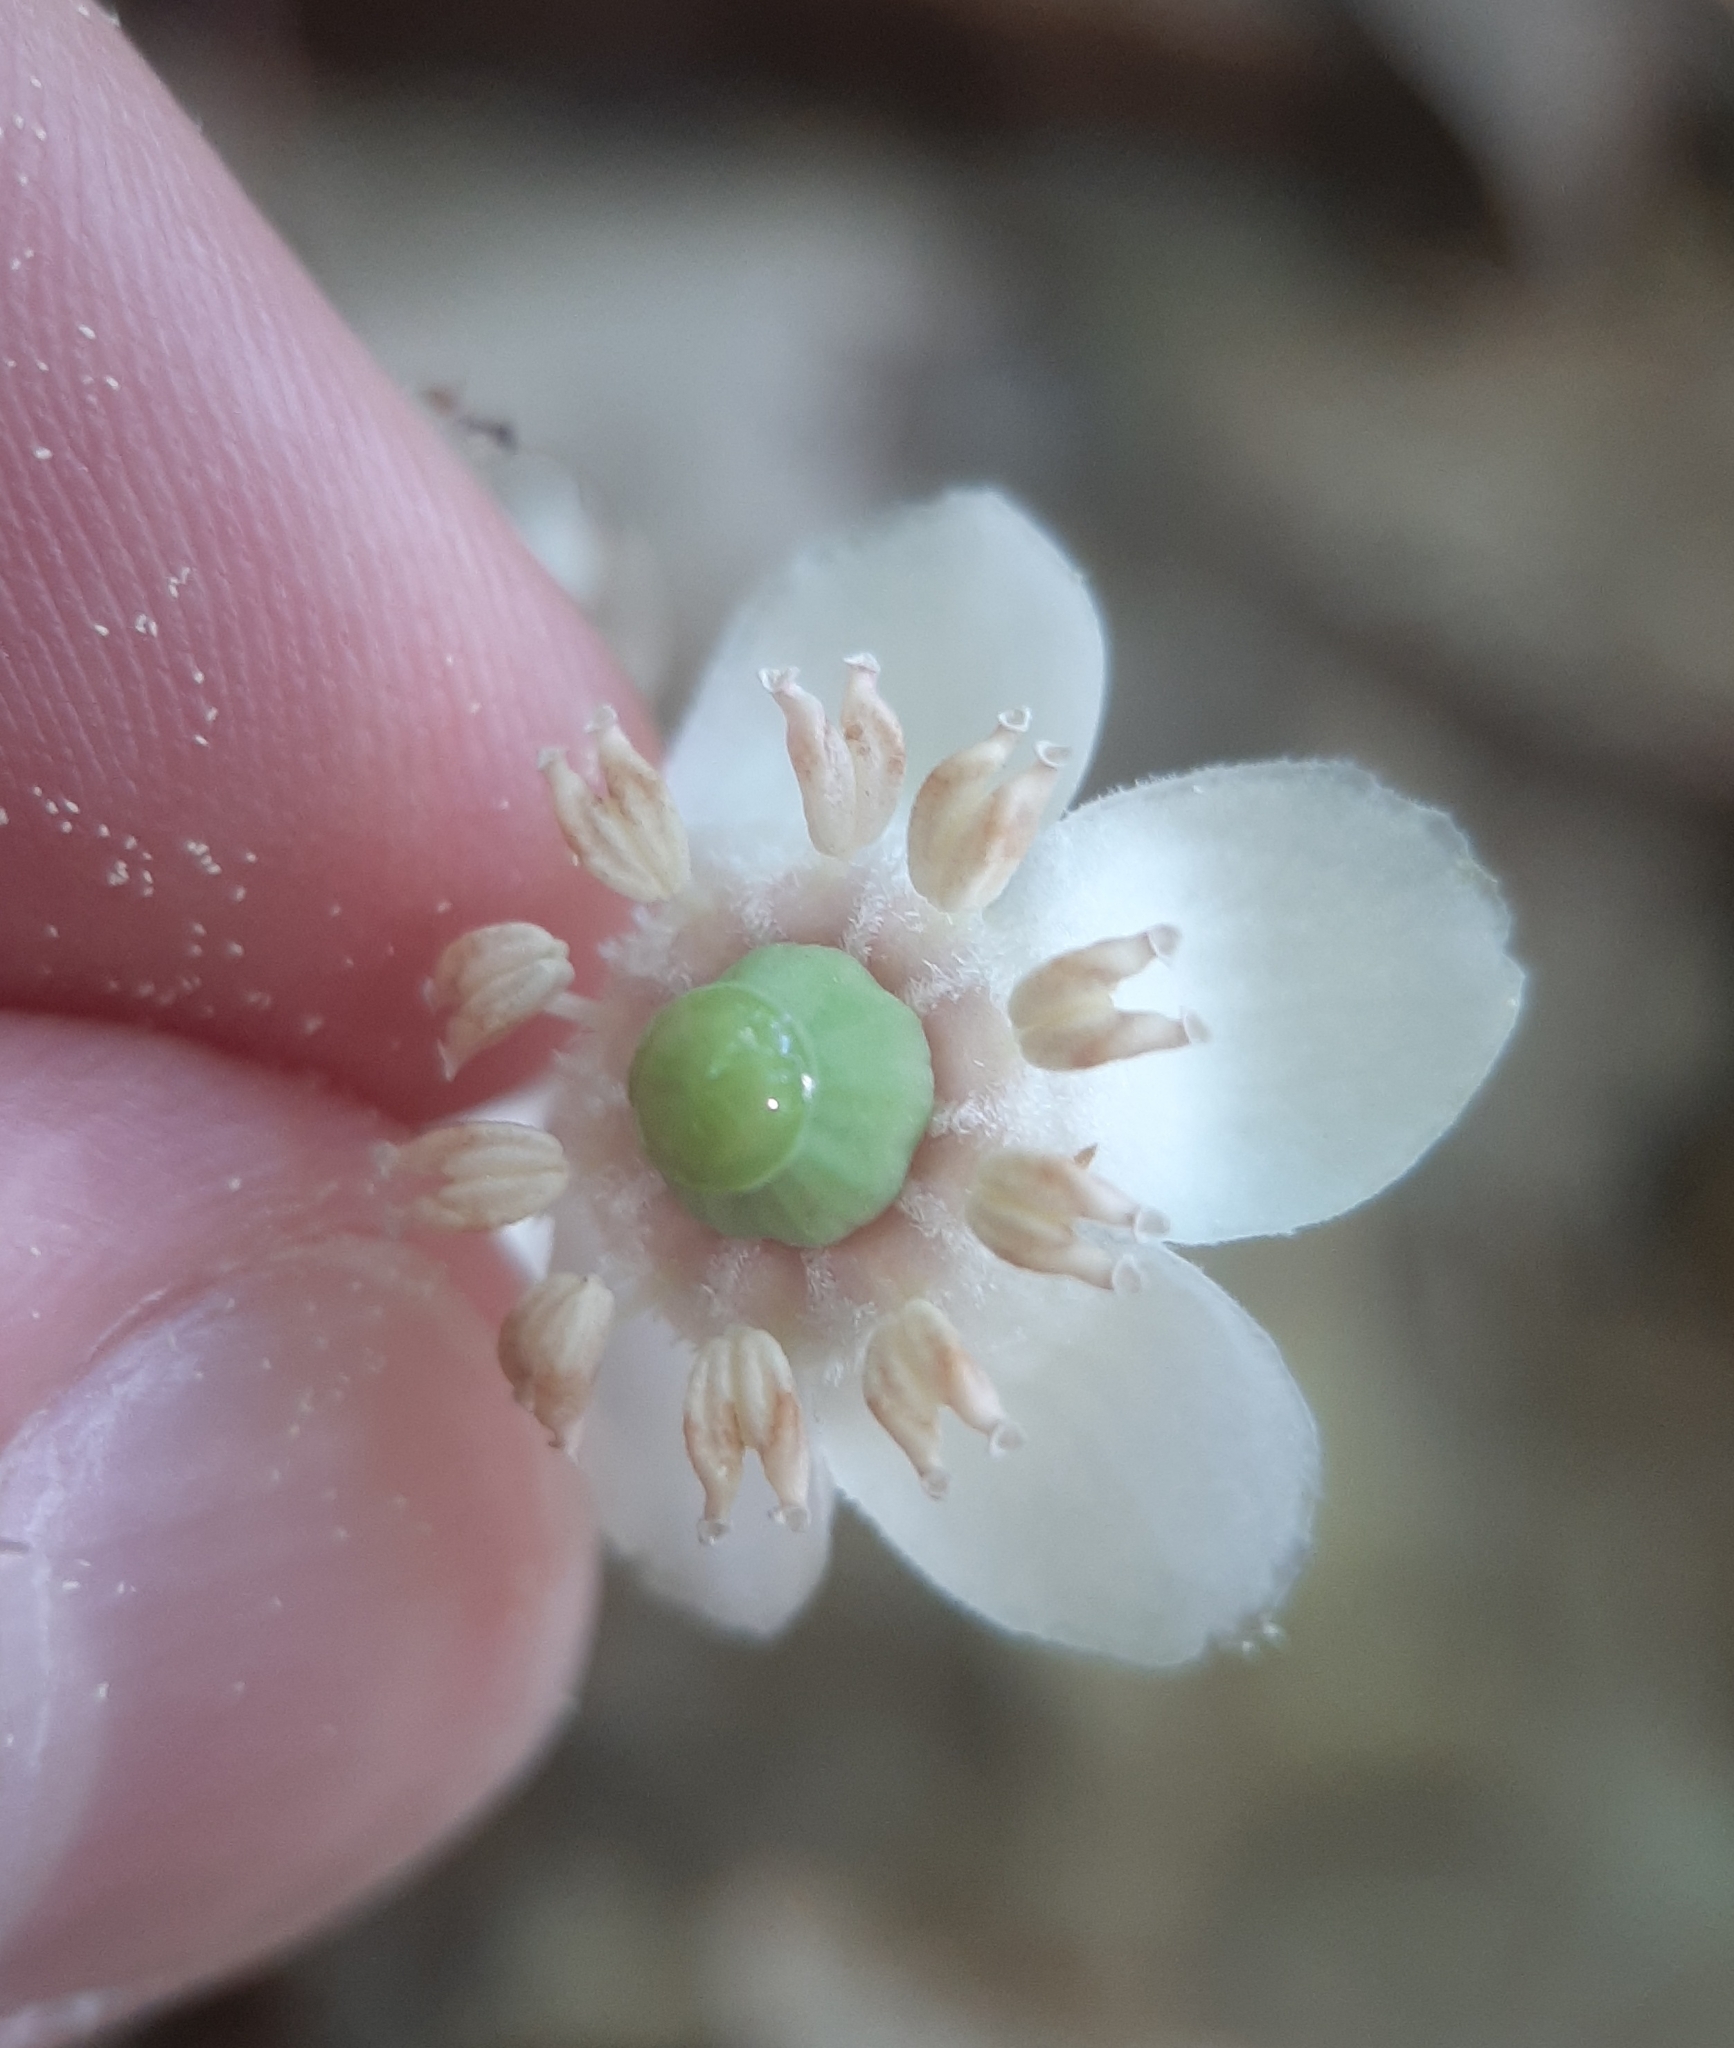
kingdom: Plantae
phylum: Tracheophyta
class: Magnoliopsida
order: Ericales
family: Ericaceae
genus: Chimaphila
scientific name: Chimaphila maculata
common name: Spotted pipsissewa
